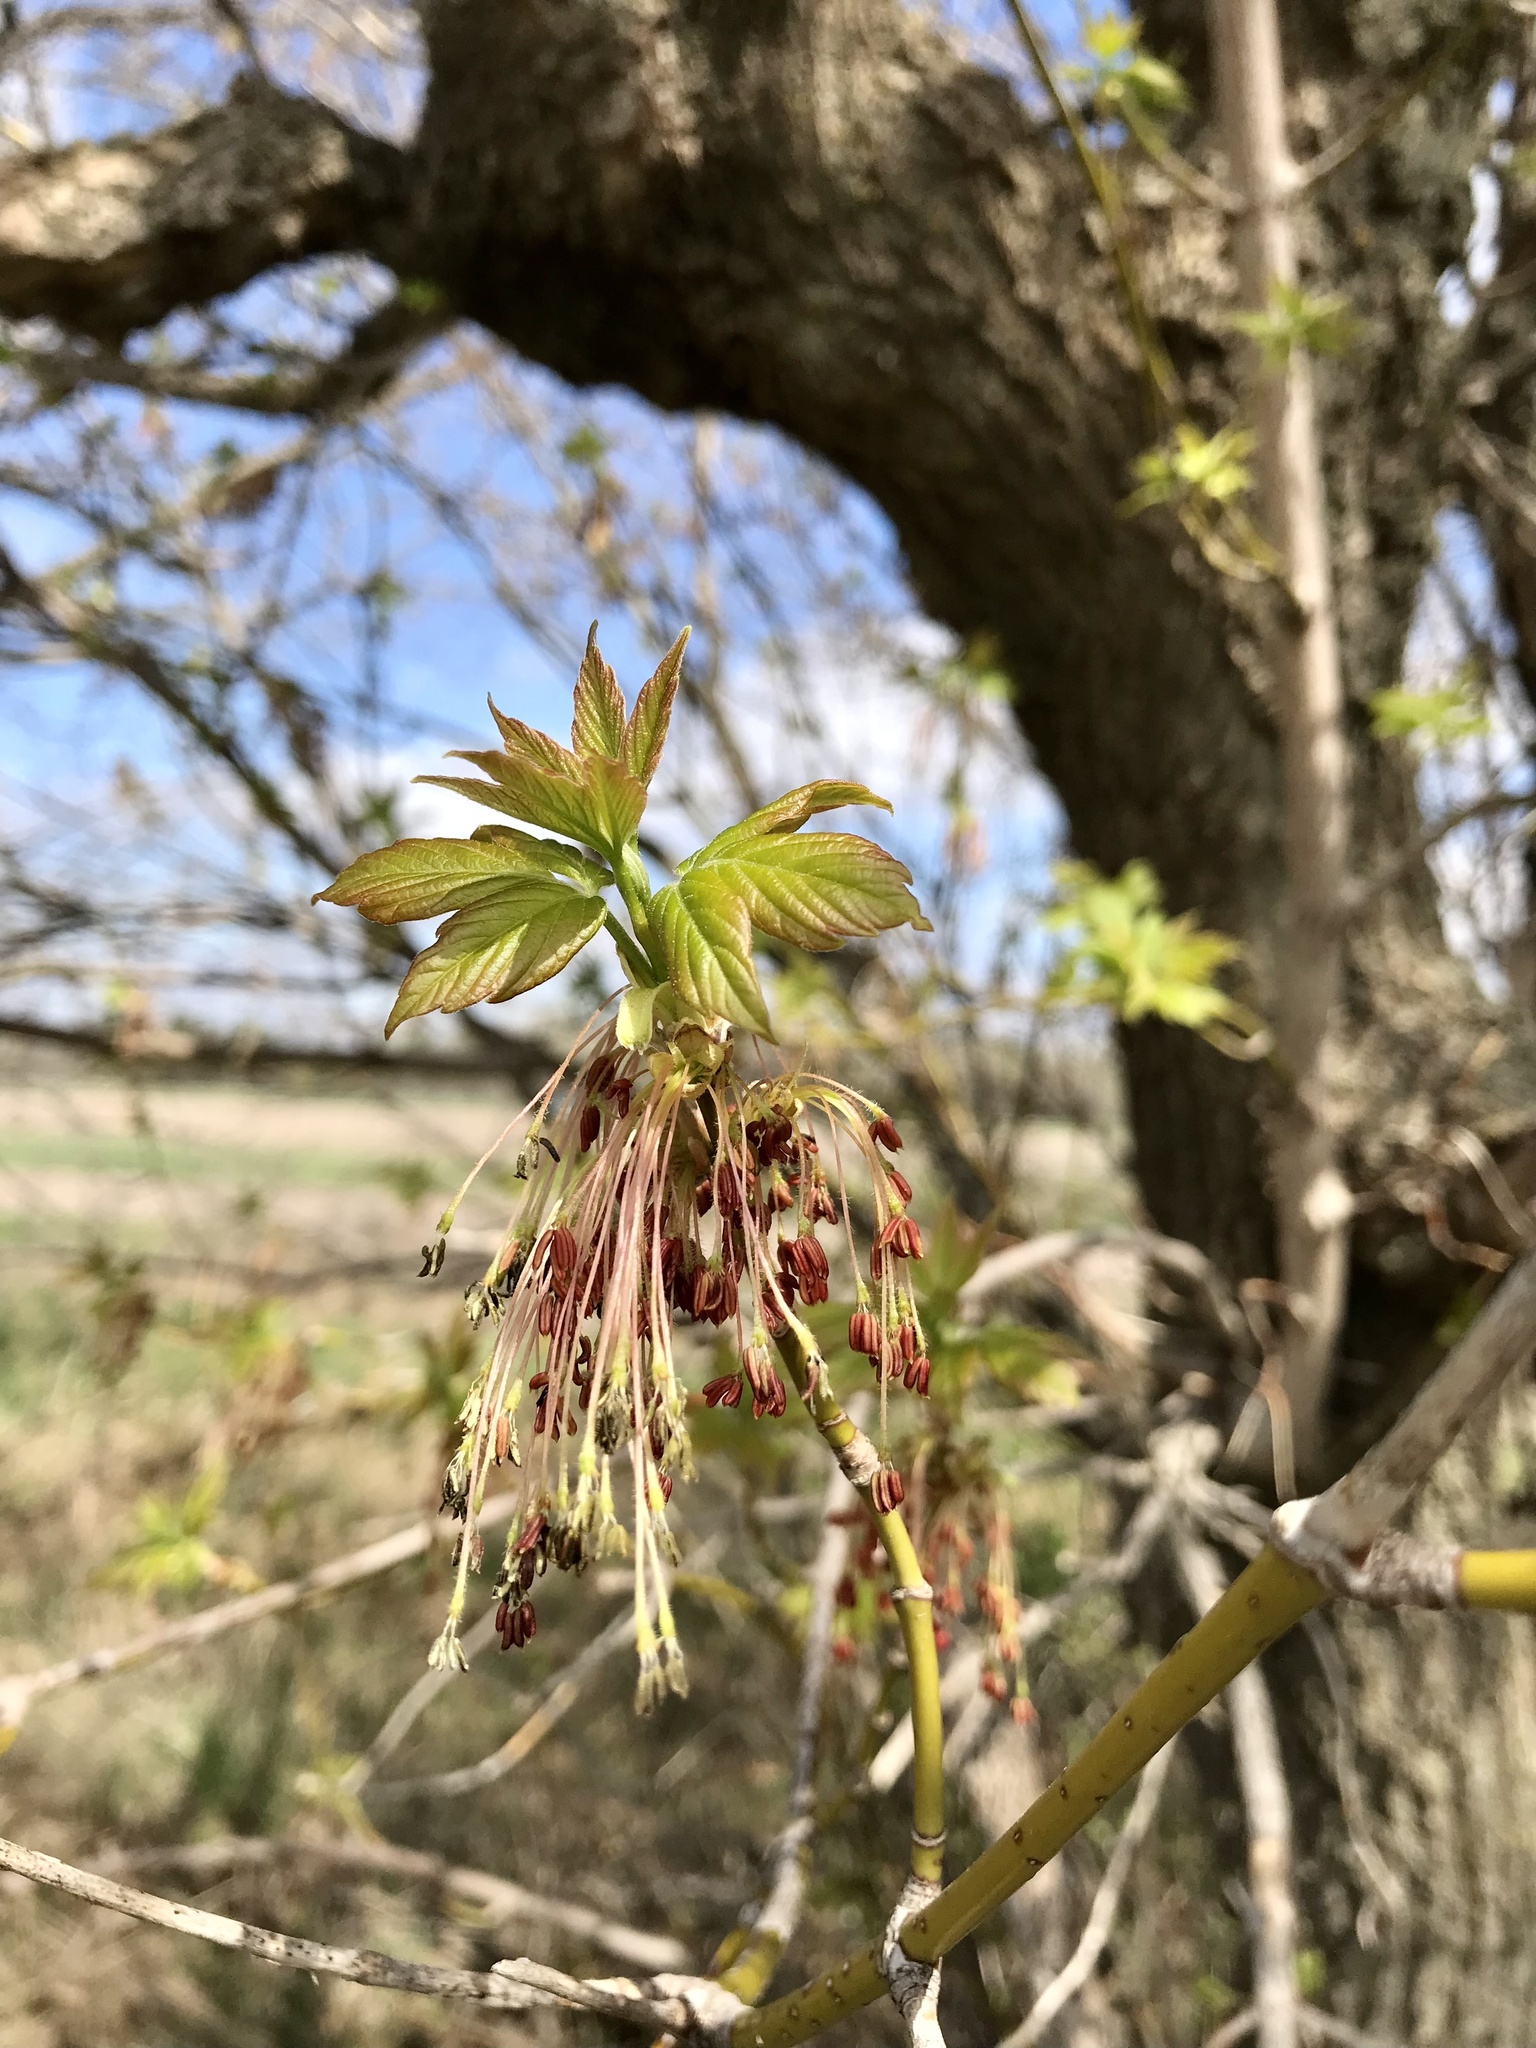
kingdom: Plantae
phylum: Tracheophyta
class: Magnoliopsida
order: Sapindales
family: Sapindaceae
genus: Acer
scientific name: Acer negundo
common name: Ashleaf maple
